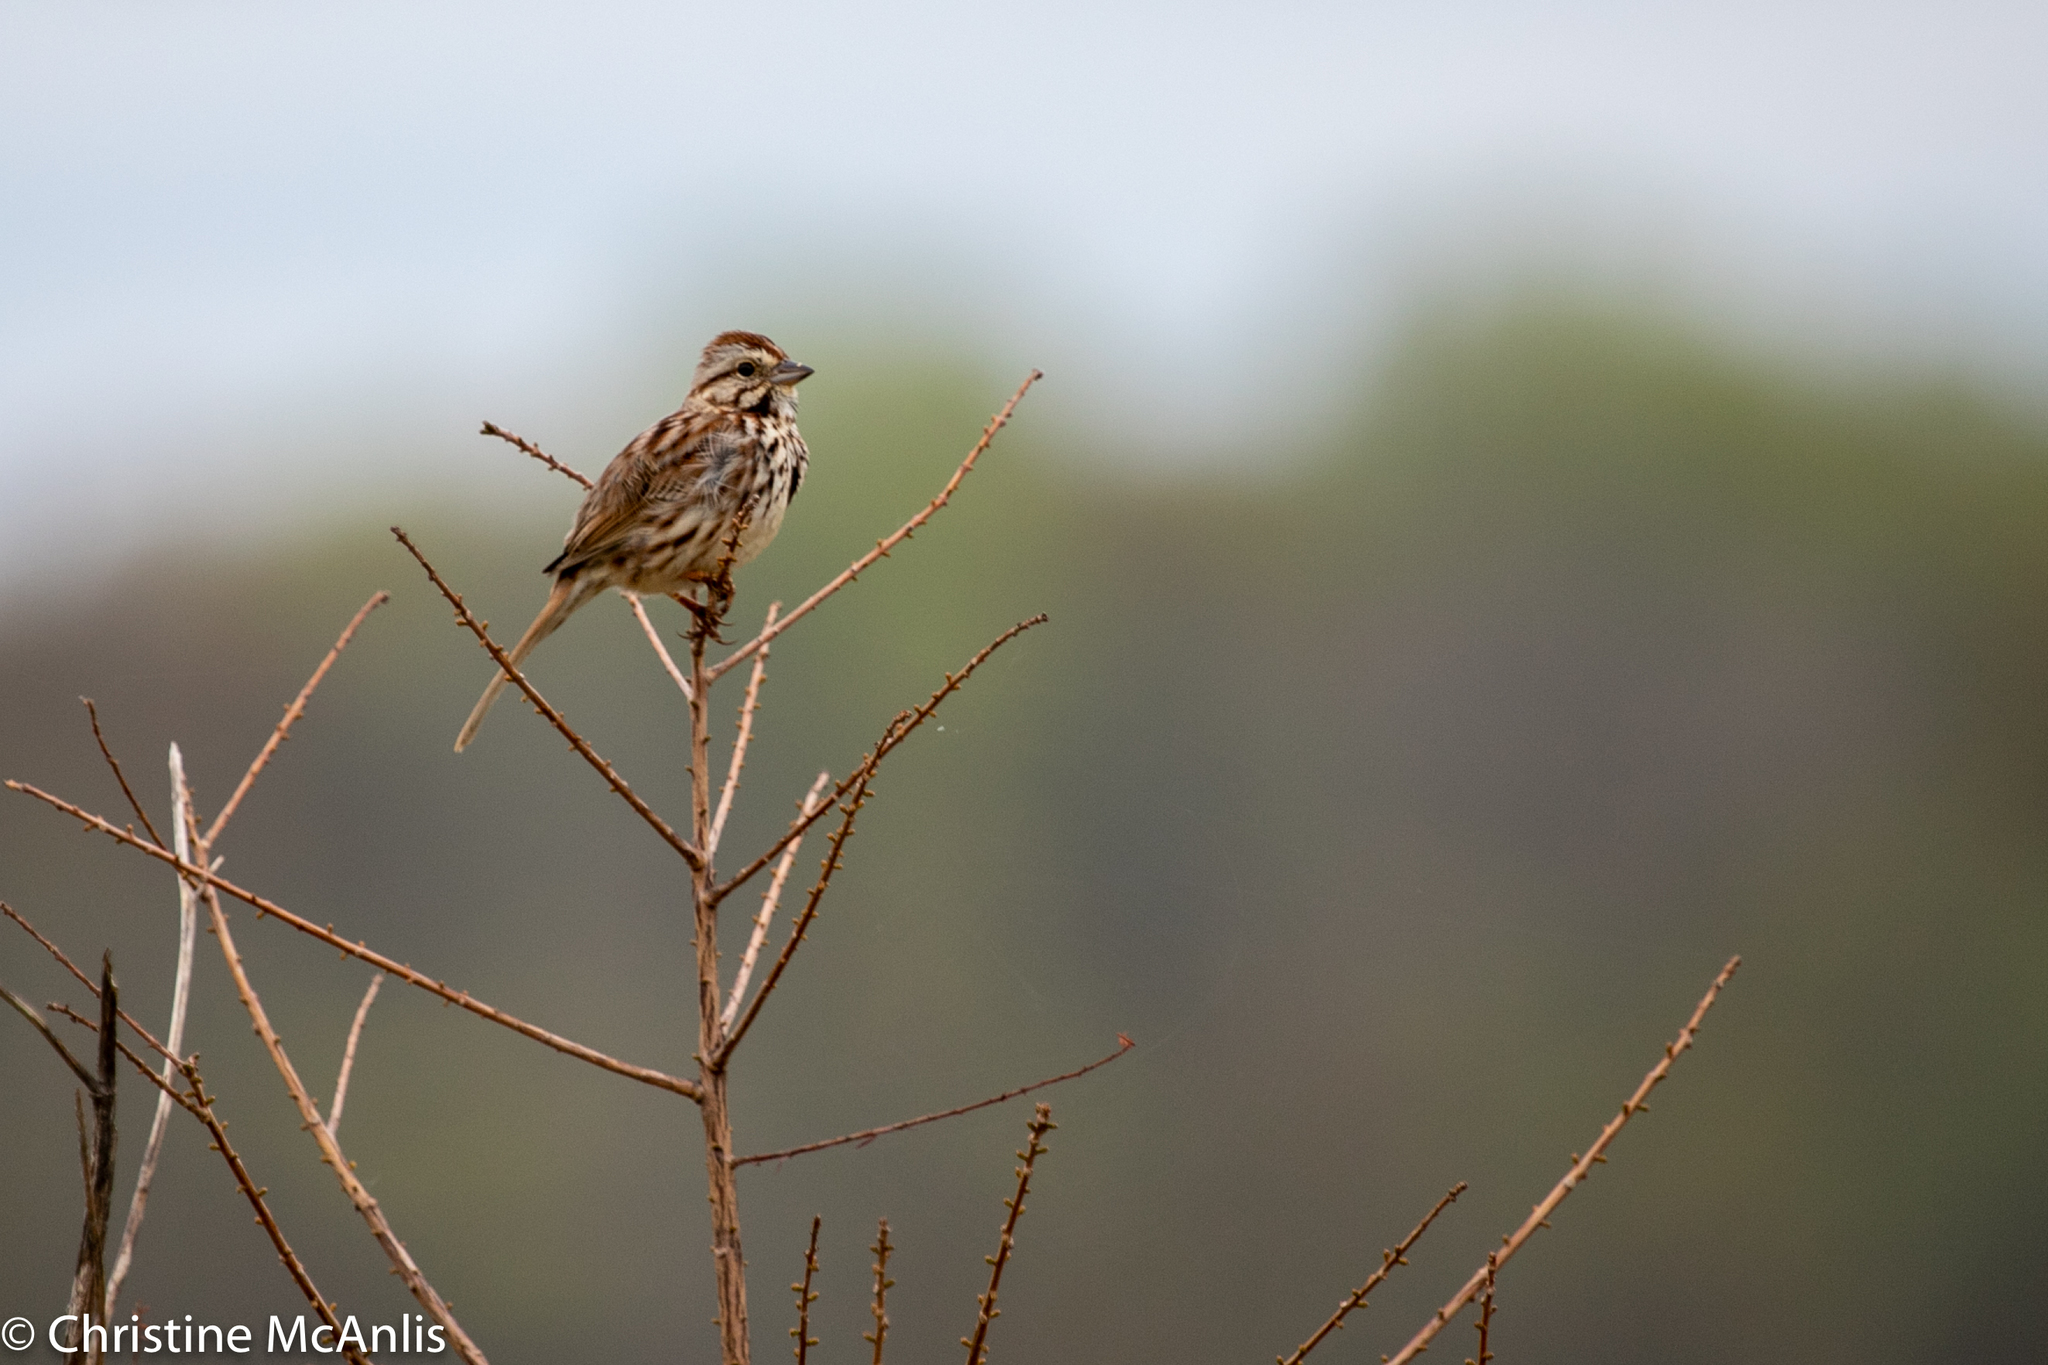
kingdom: Animalia
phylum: Chordata
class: Aves
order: Passeriformes
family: Passerellidae
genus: Melospiza
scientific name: Melospiza melodia
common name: Song sparrow
